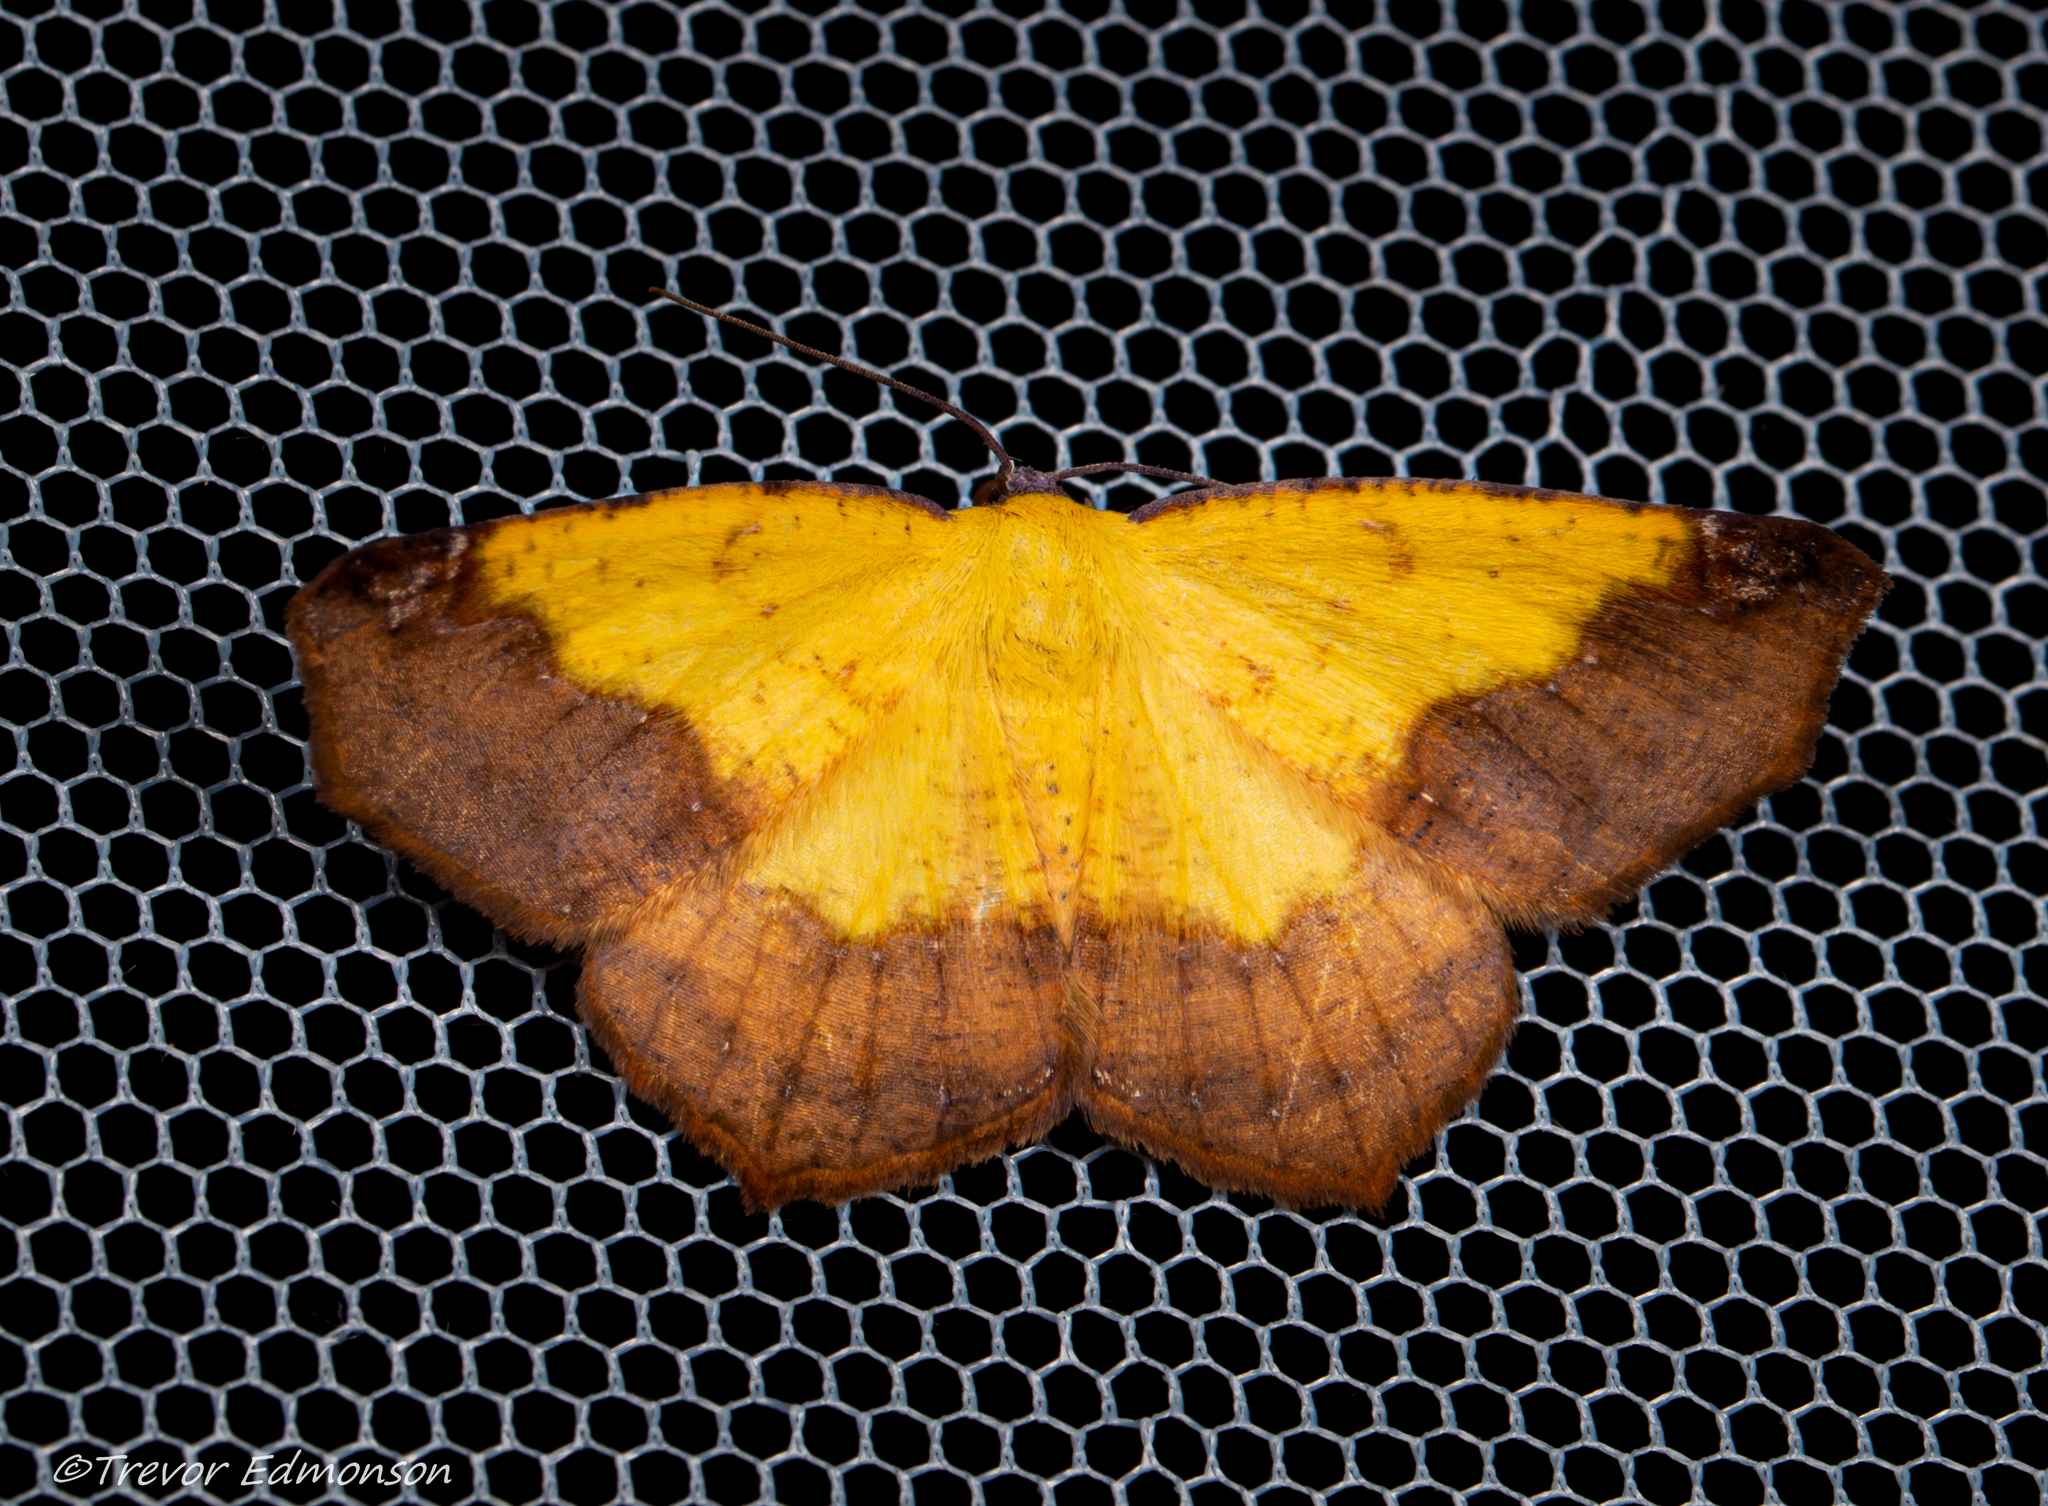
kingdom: Animalia
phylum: Arthropoda
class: Insecta
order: Lepidoptera
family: Geometridae
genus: Antepione
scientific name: Antepione thisoaria
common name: Variable antipione
